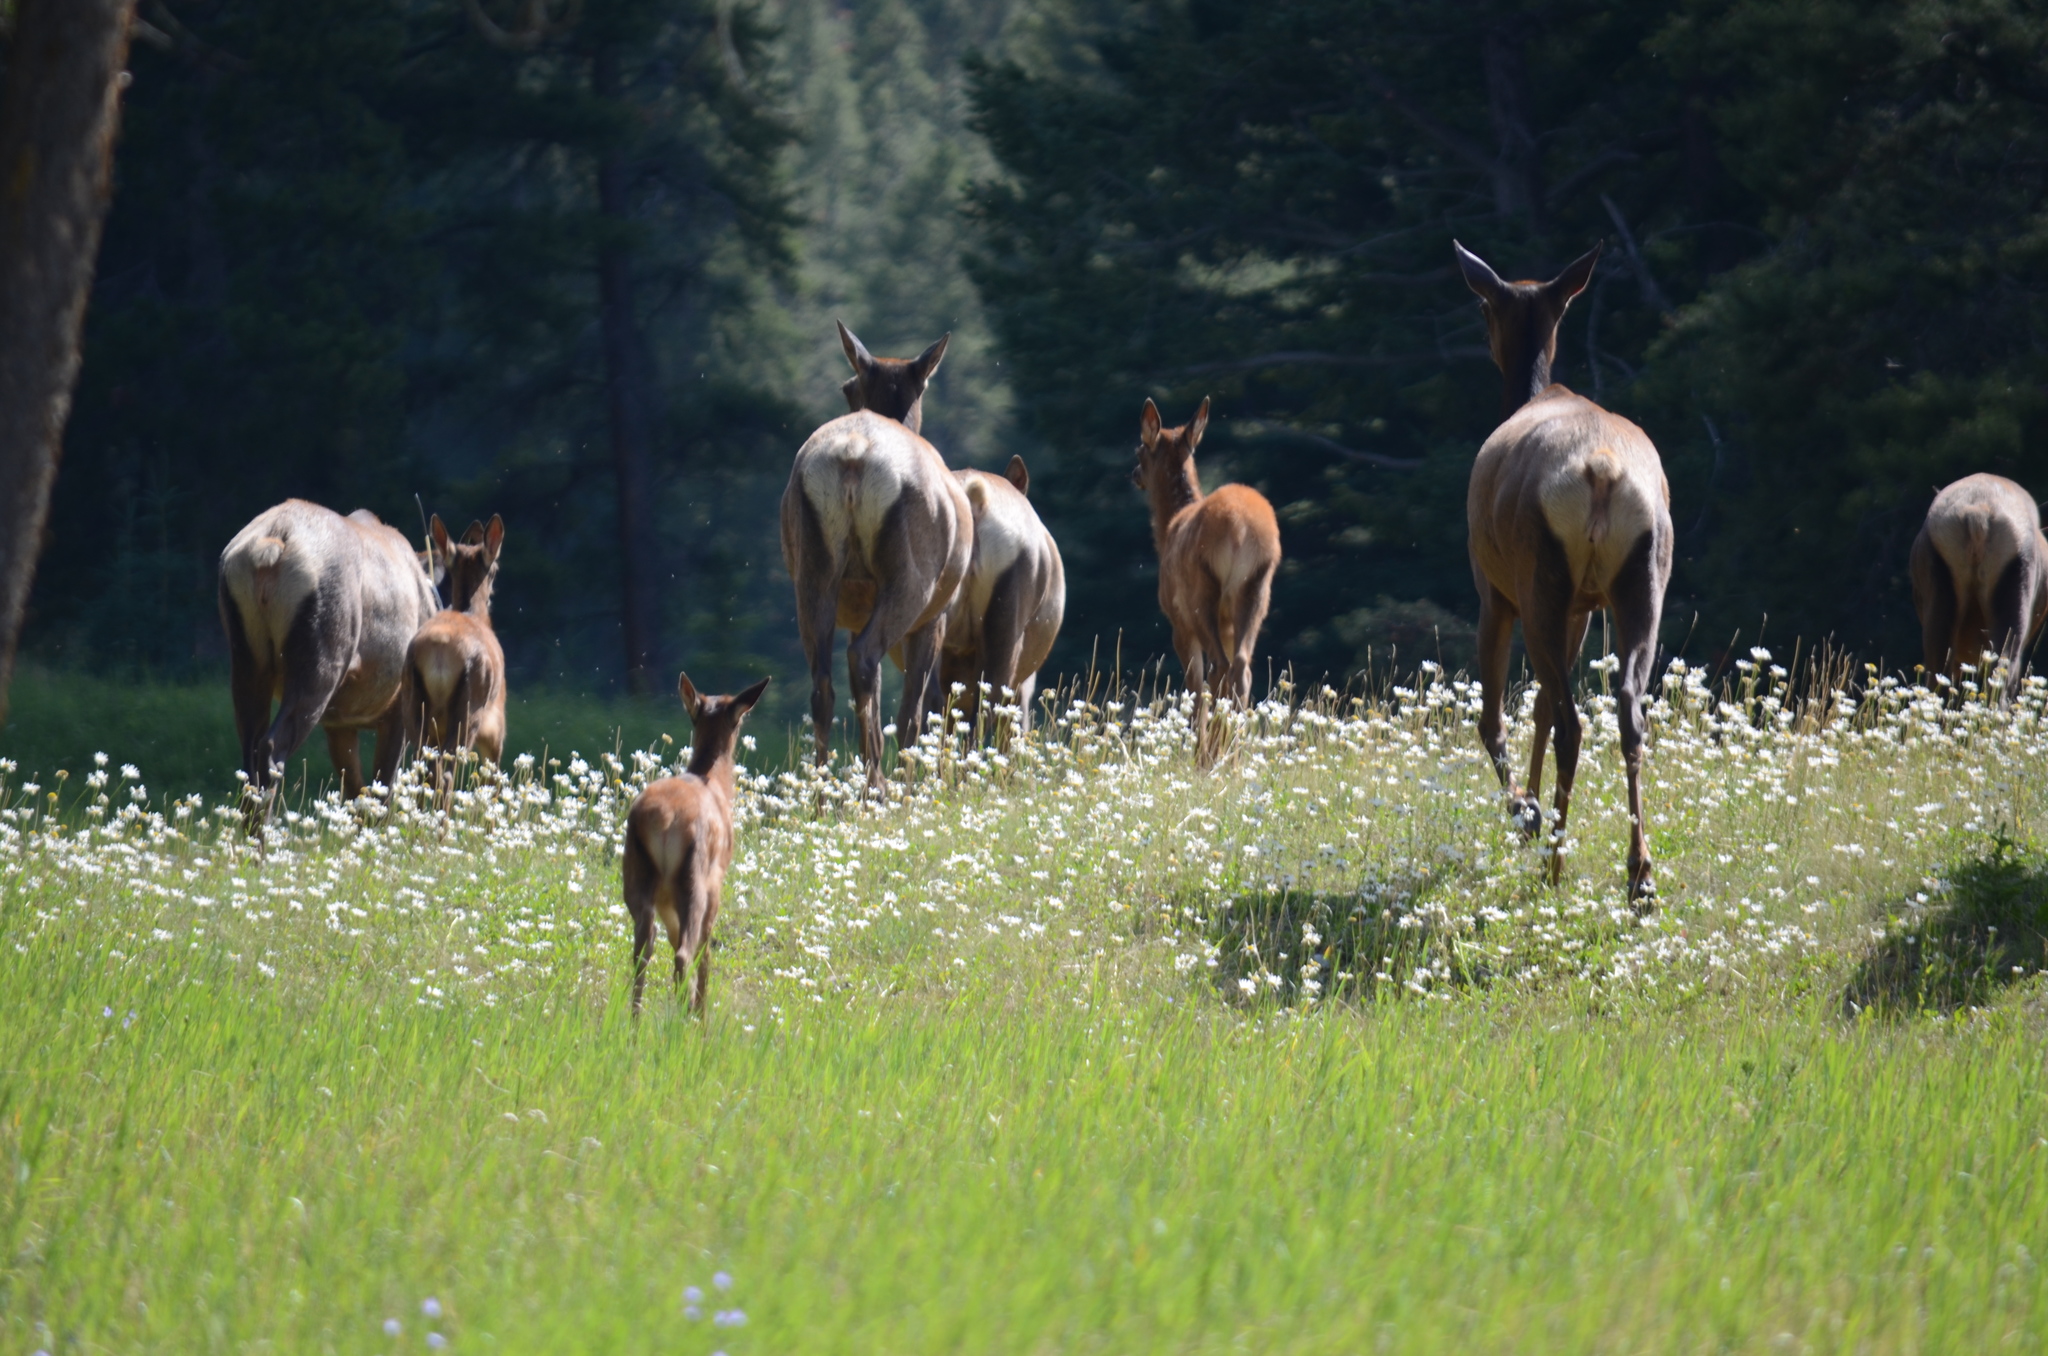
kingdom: Animalia
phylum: Chordata
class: Mammalia
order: Artiodactyla
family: Cervidae
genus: Cervus
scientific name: Cervus elaphus
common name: Red deer
